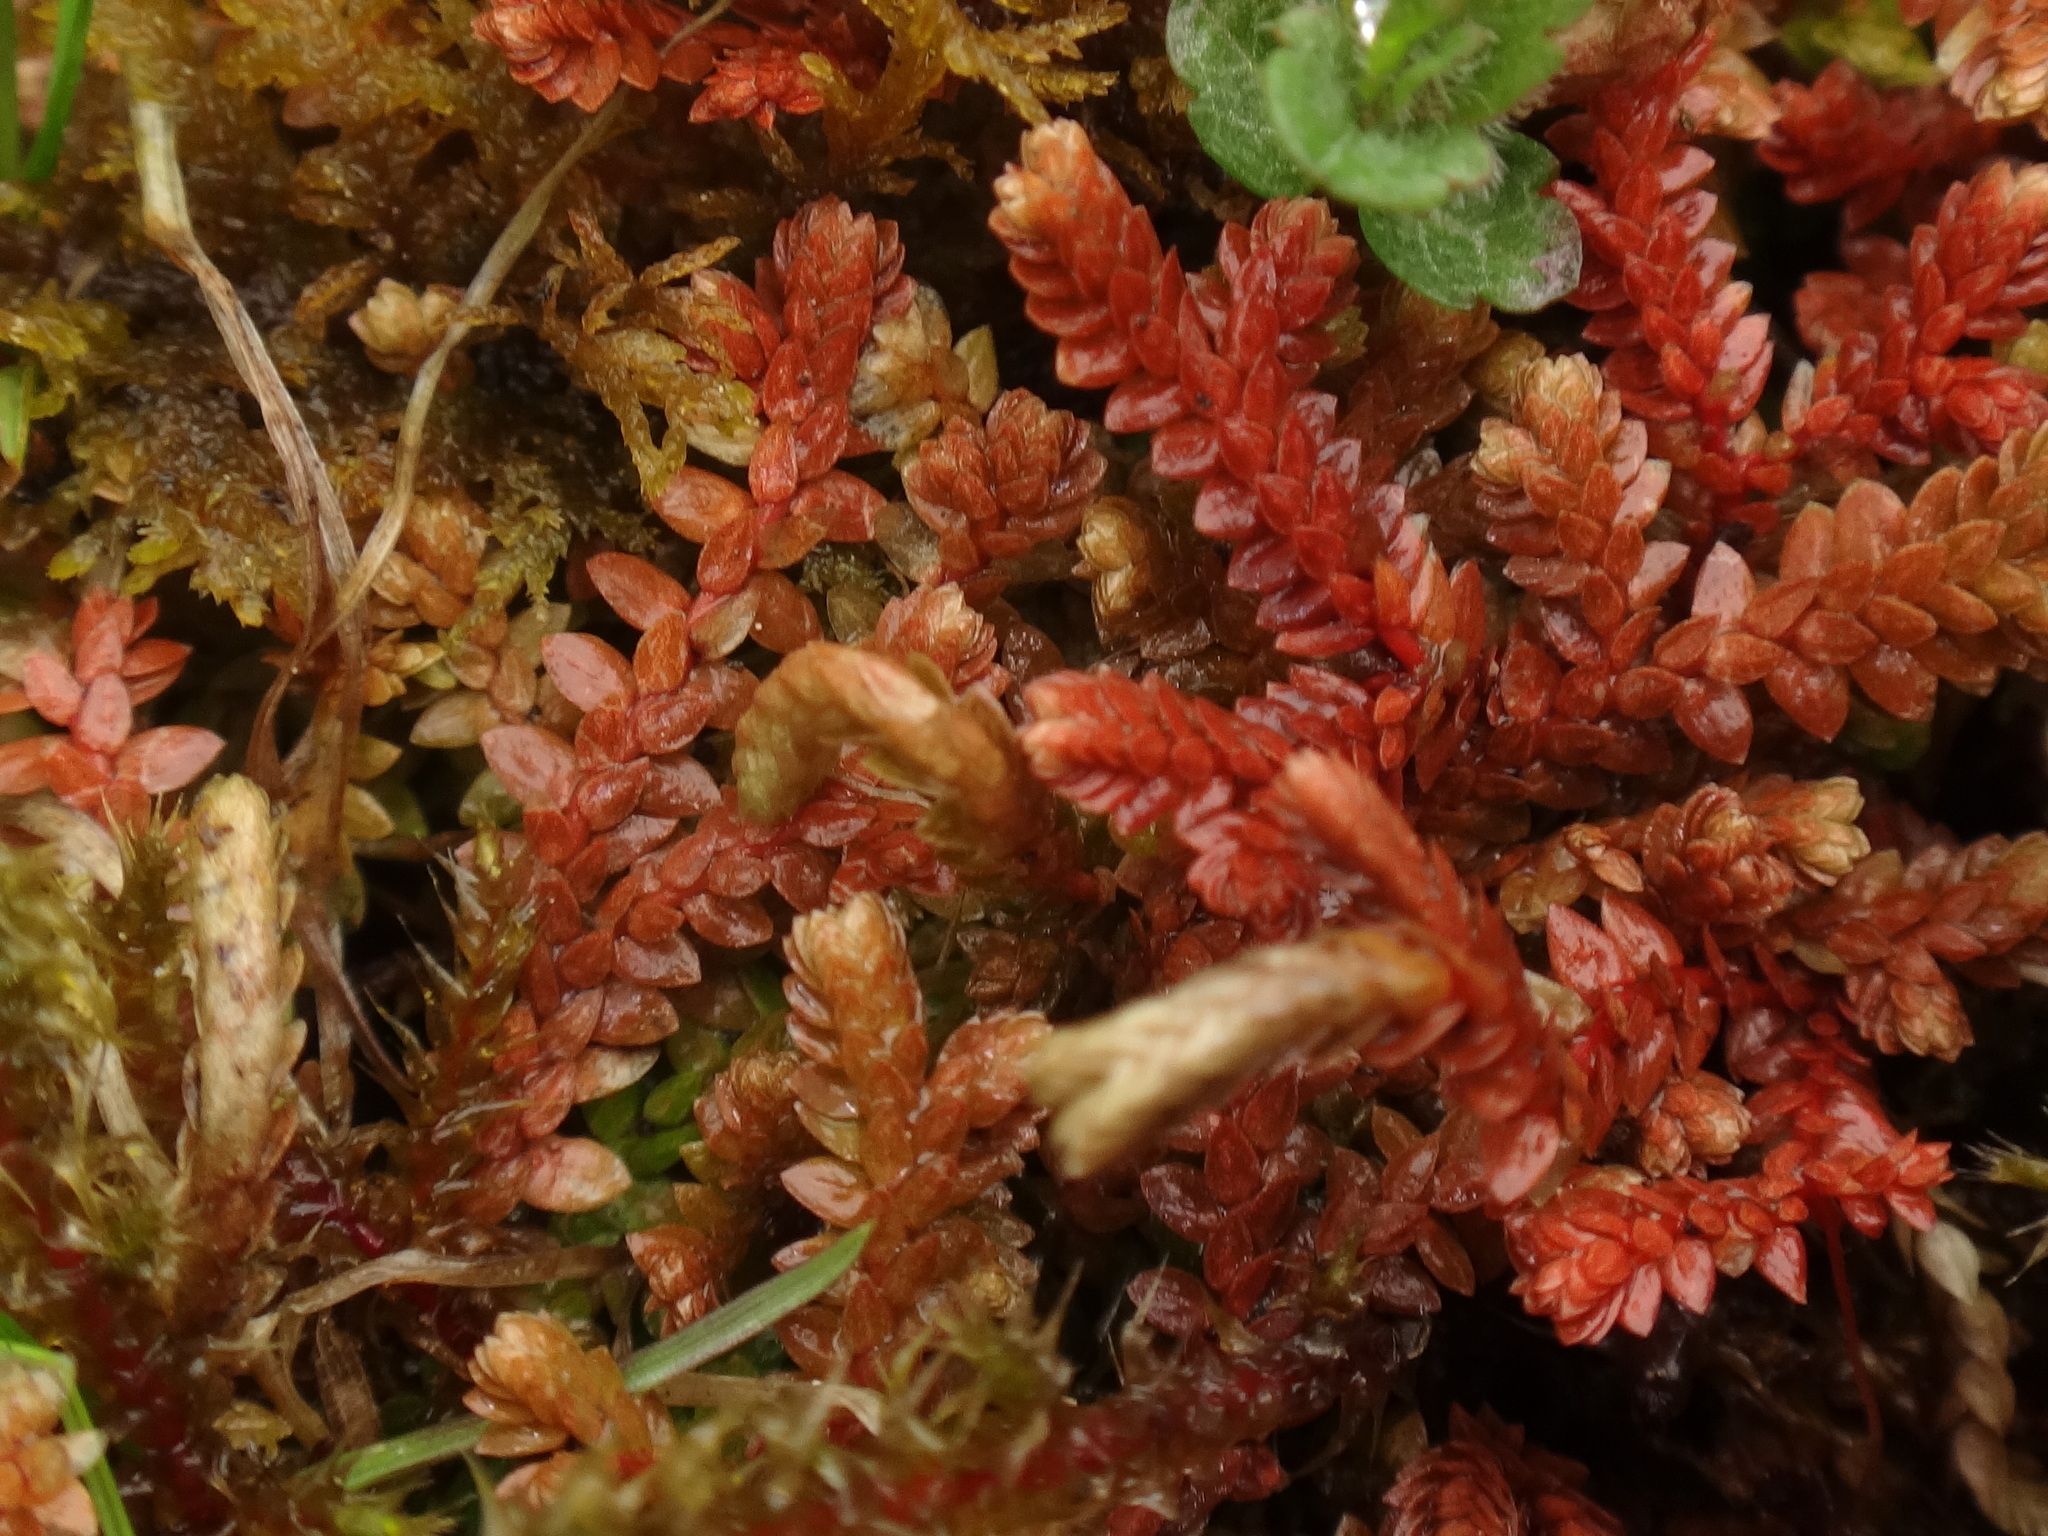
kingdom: Plantae
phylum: Tracheophyta
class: Lycopodiopsida
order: Selaginellales
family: Selaginellaceae
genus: Selaginella
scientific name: Selaginella helvetica
